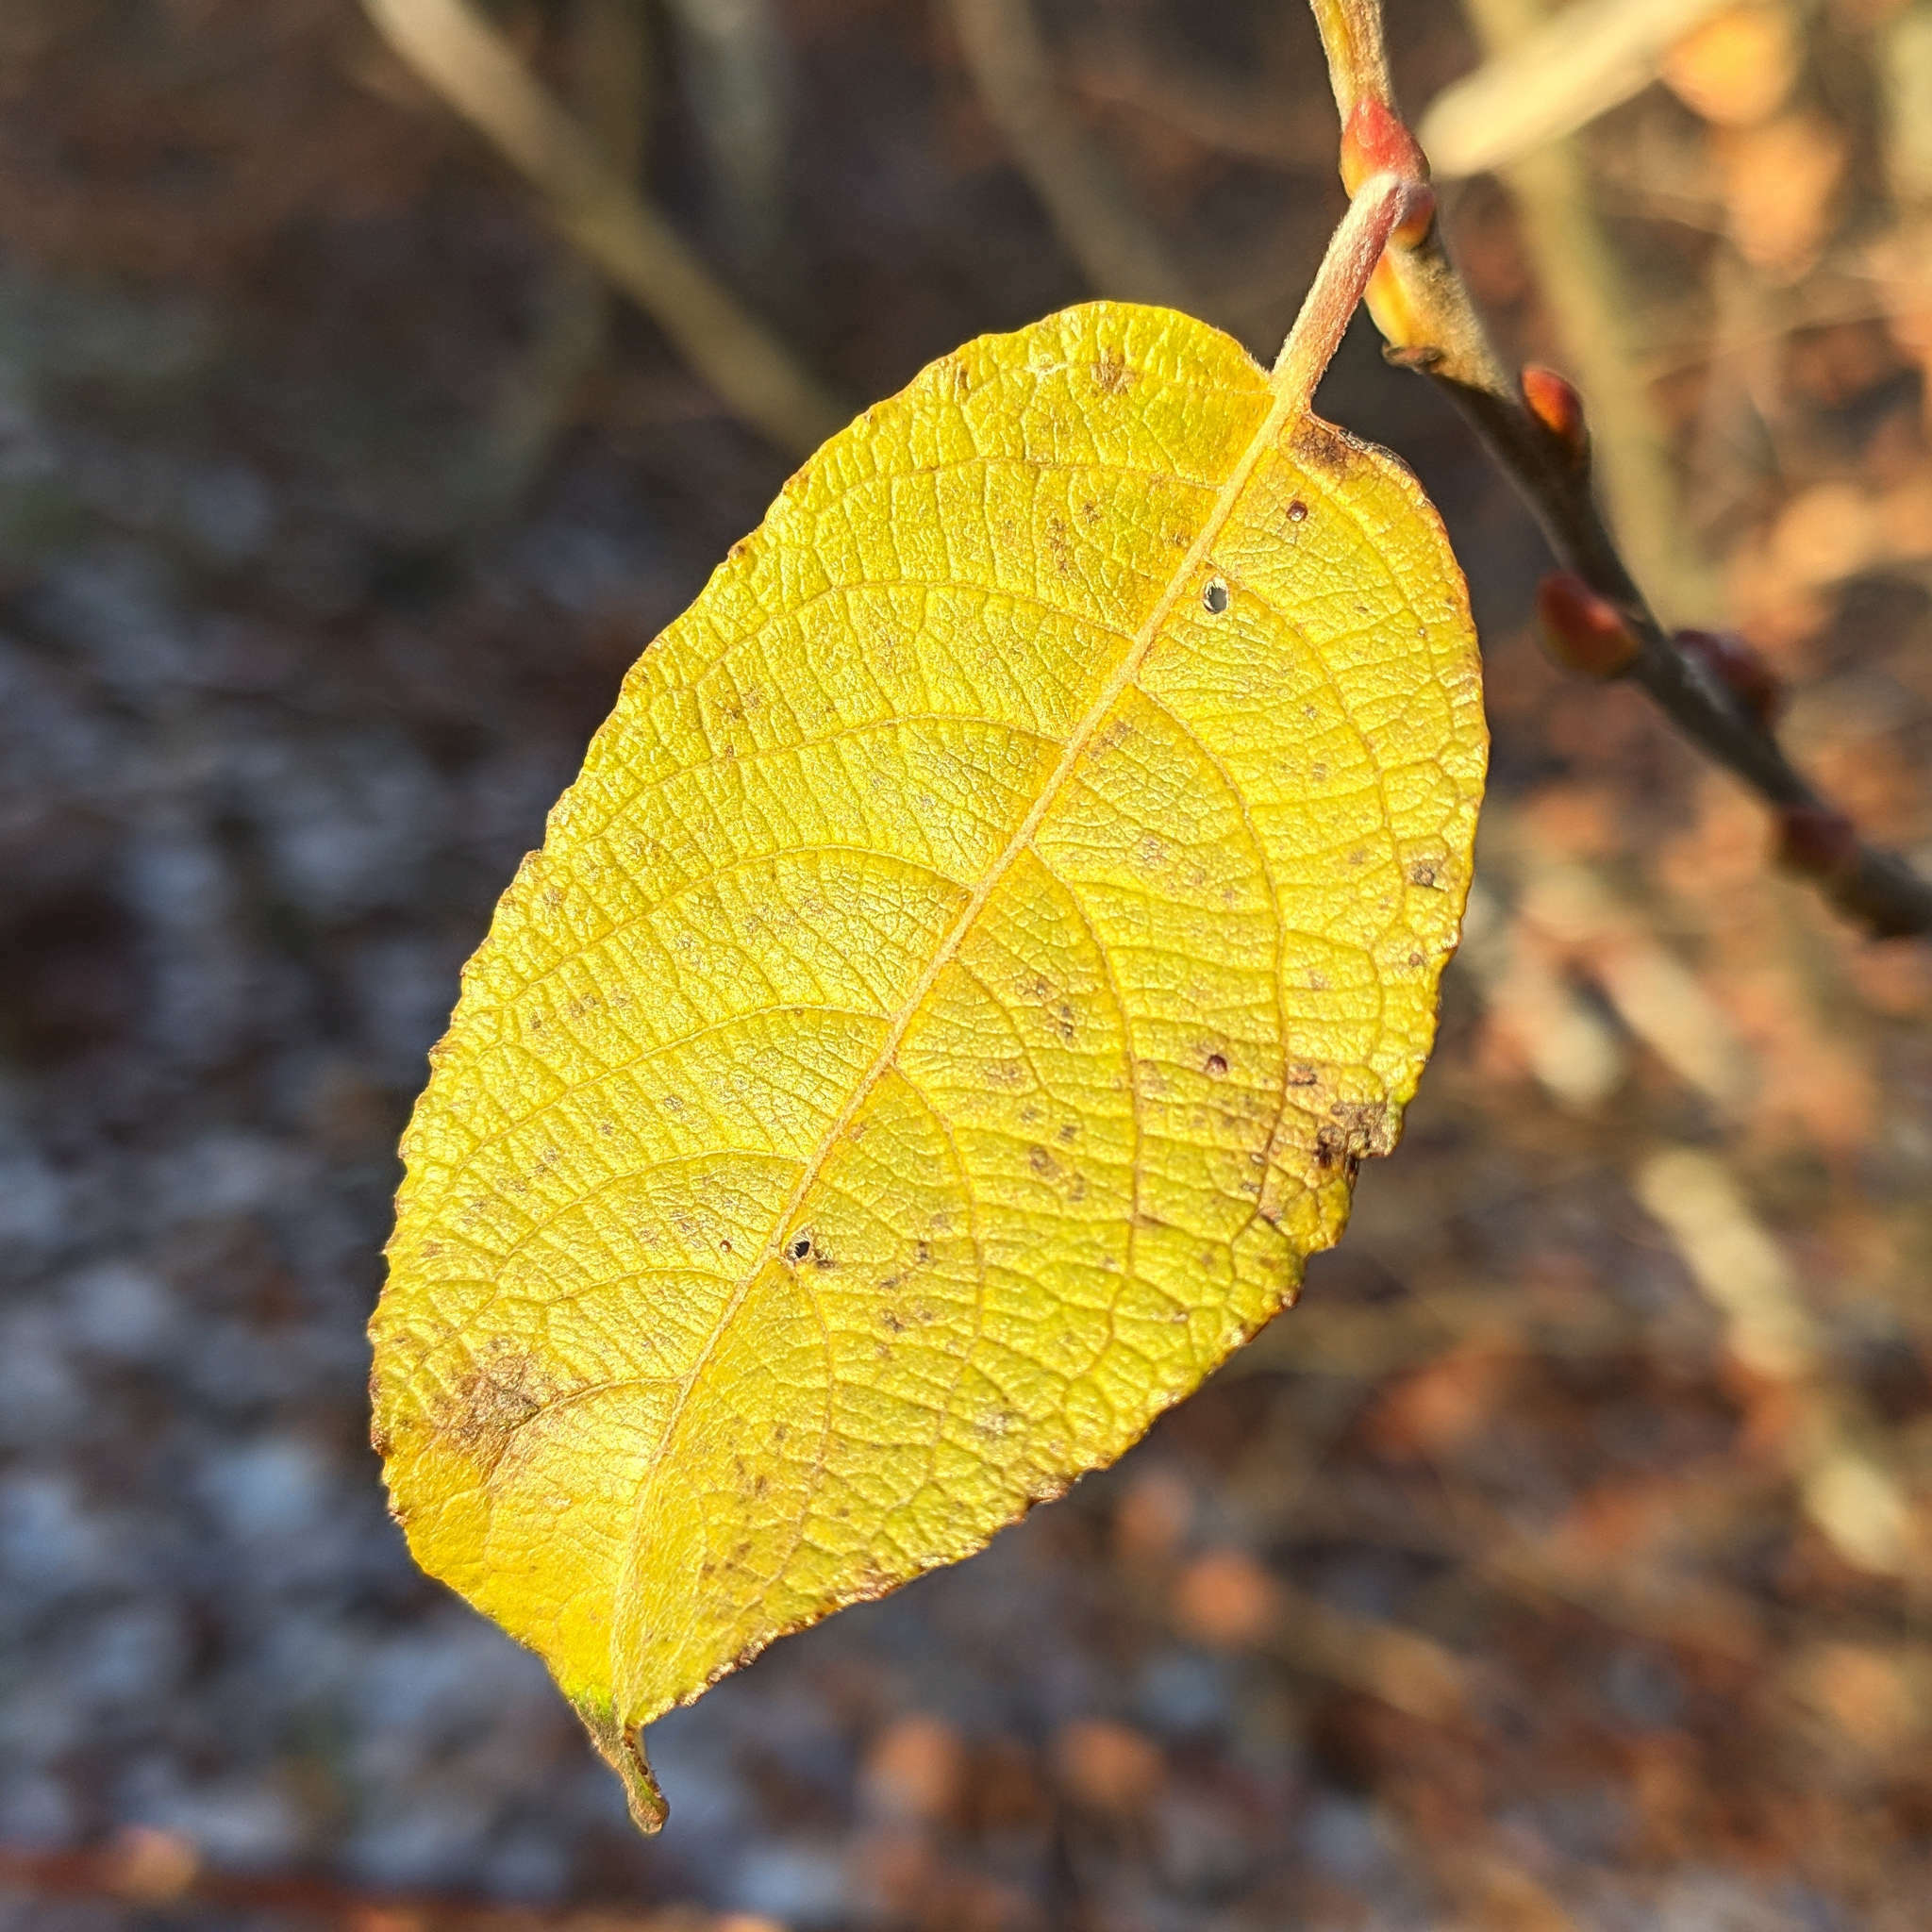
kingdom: Plantae
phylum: Tracheophyta
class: Magnoliopsida
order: Malpighiales
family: Salicaceae
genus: Salix
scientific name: Salix caprea
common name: Goat willow
